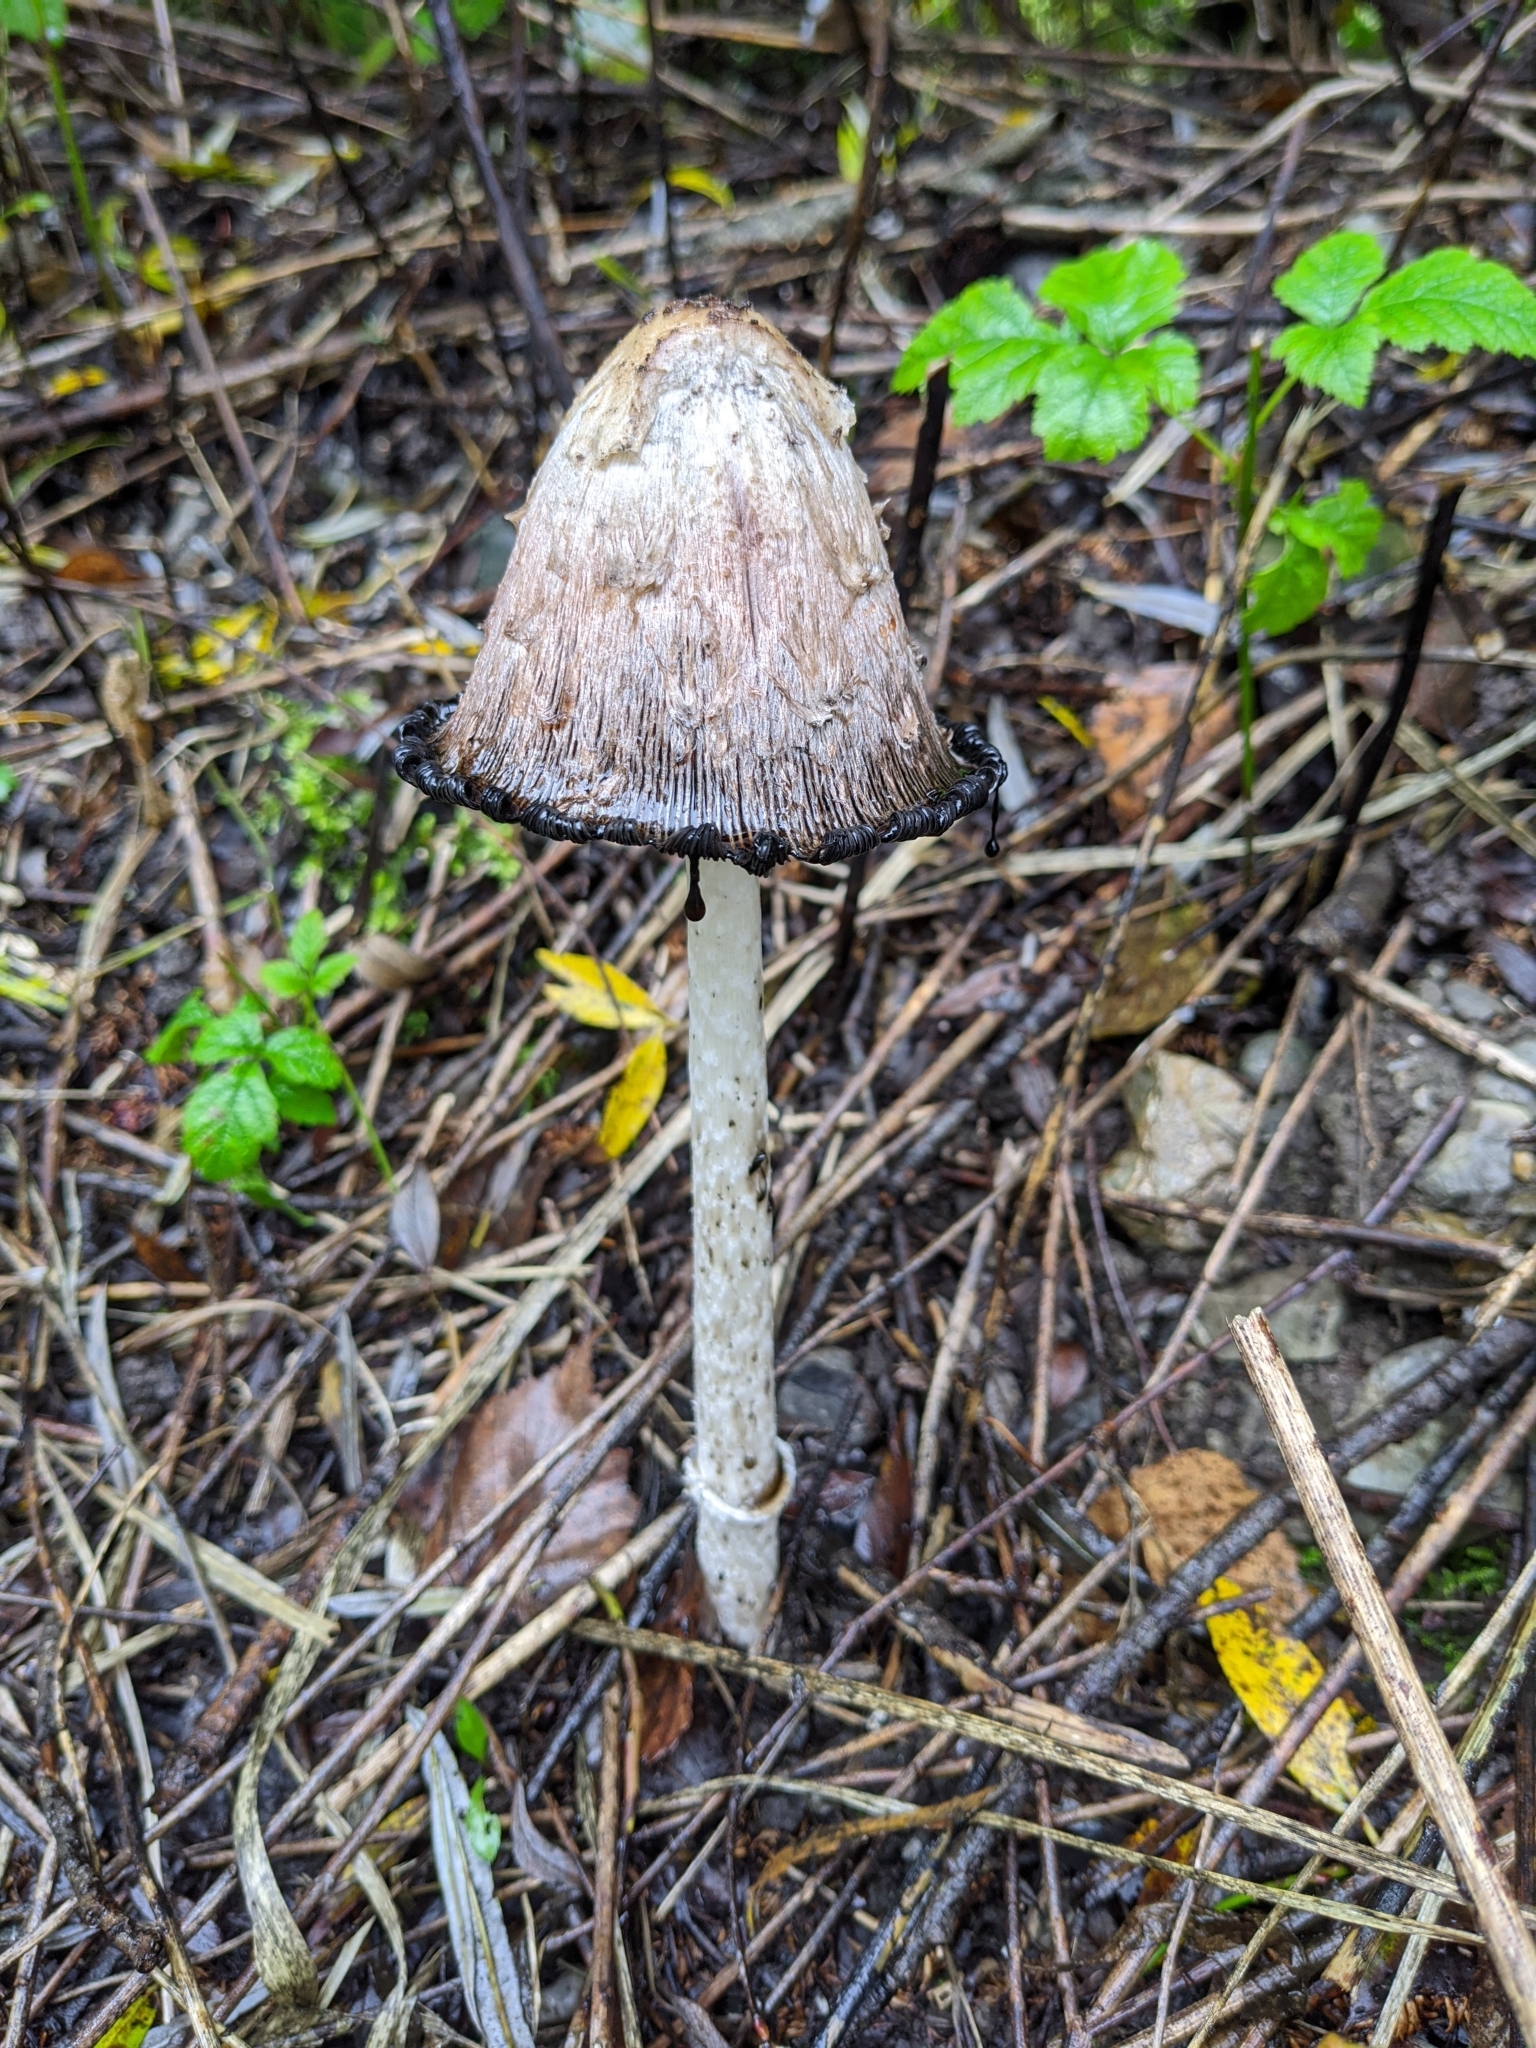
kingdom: Fungi
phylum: Basidiomycota
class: Agaricomycetes
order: Agaricales
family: Agaricaceae
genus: Coprinus
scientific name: Coprinus comatus
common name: Lawyer's wig
